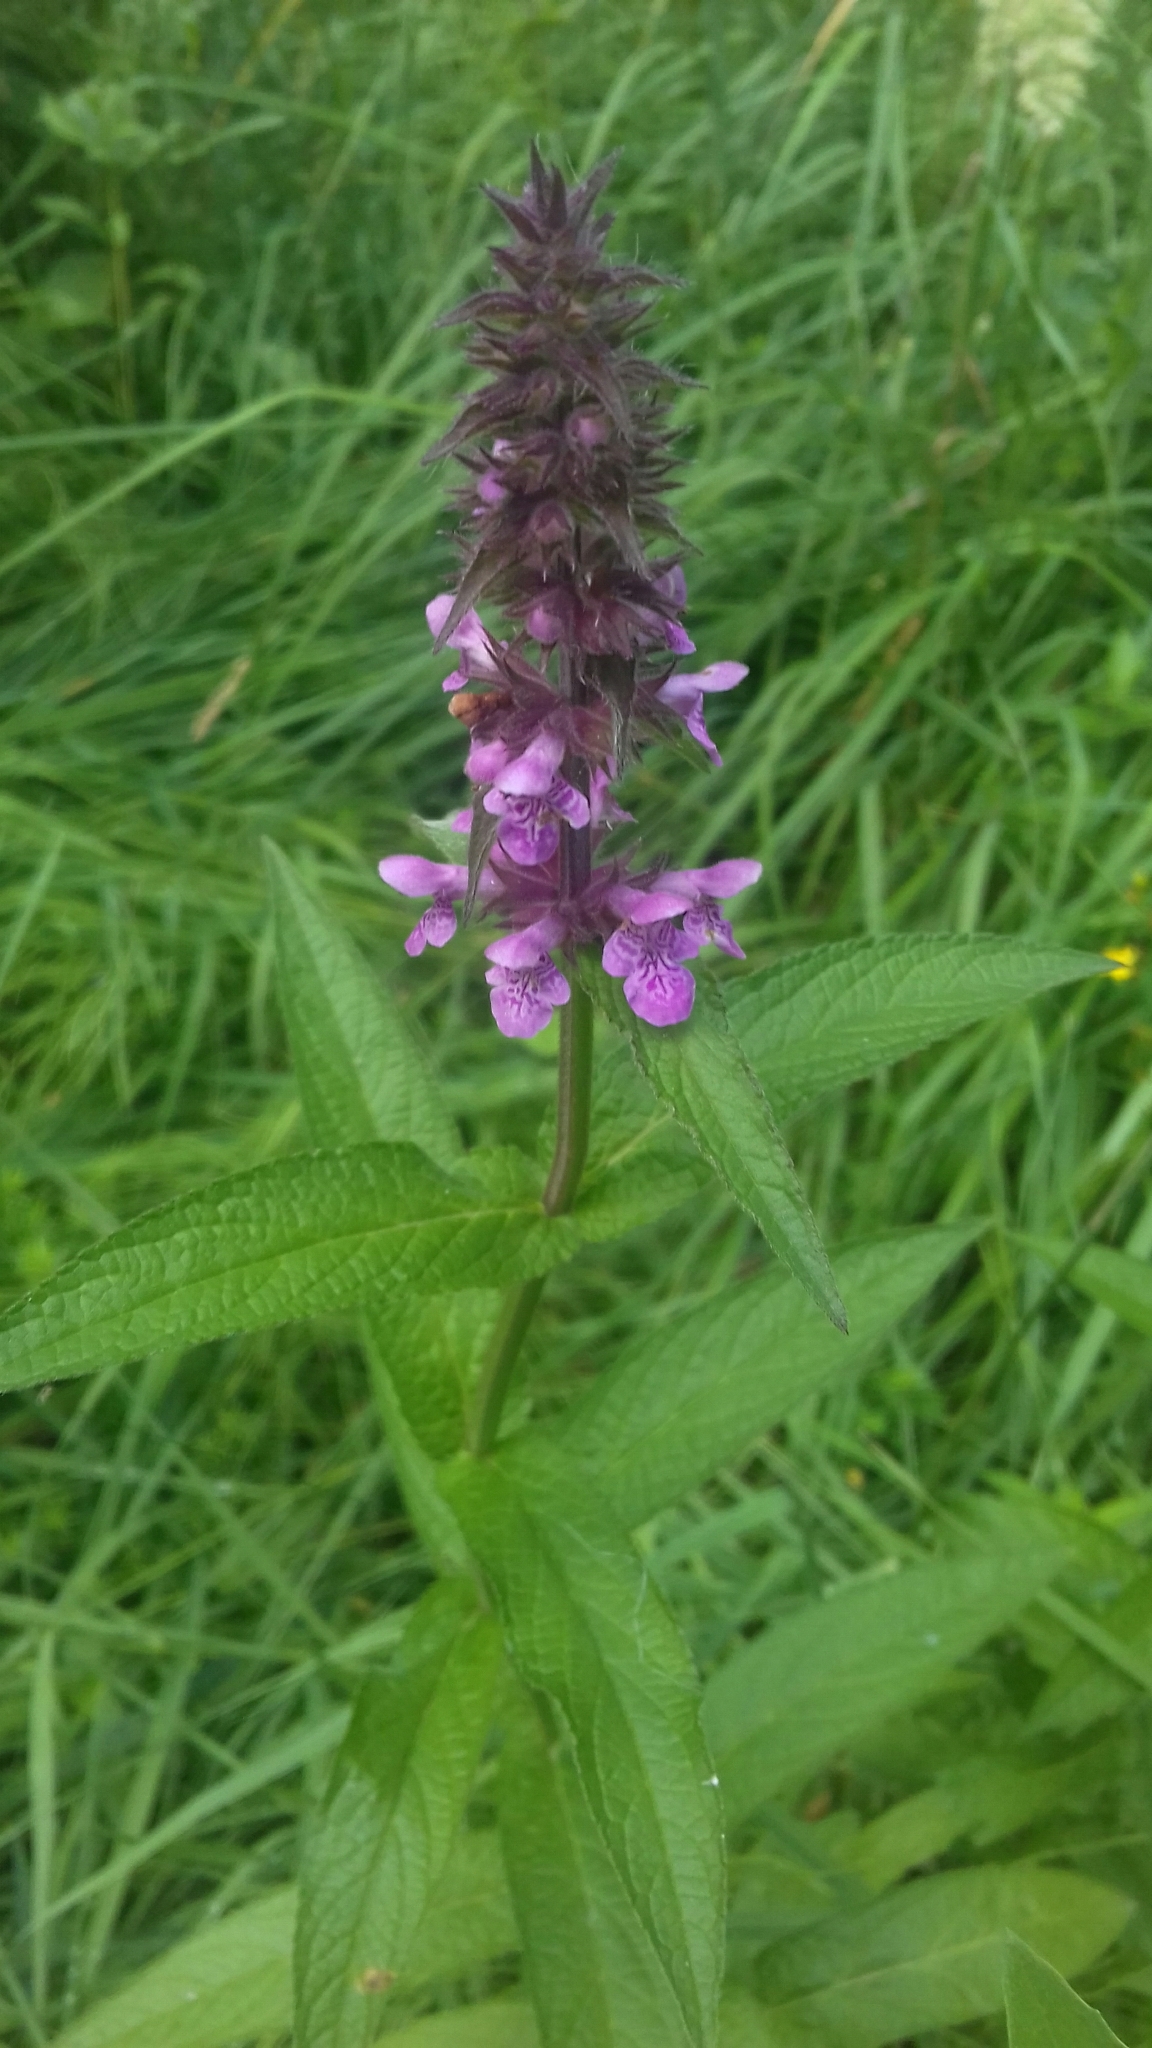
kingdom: Plantae
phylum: Tracheophyta
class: Magnoliopsida
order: Lamiales
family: Lamiaceae
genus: Stachys
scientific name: Stachys palustris
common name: Marsh woundwort
